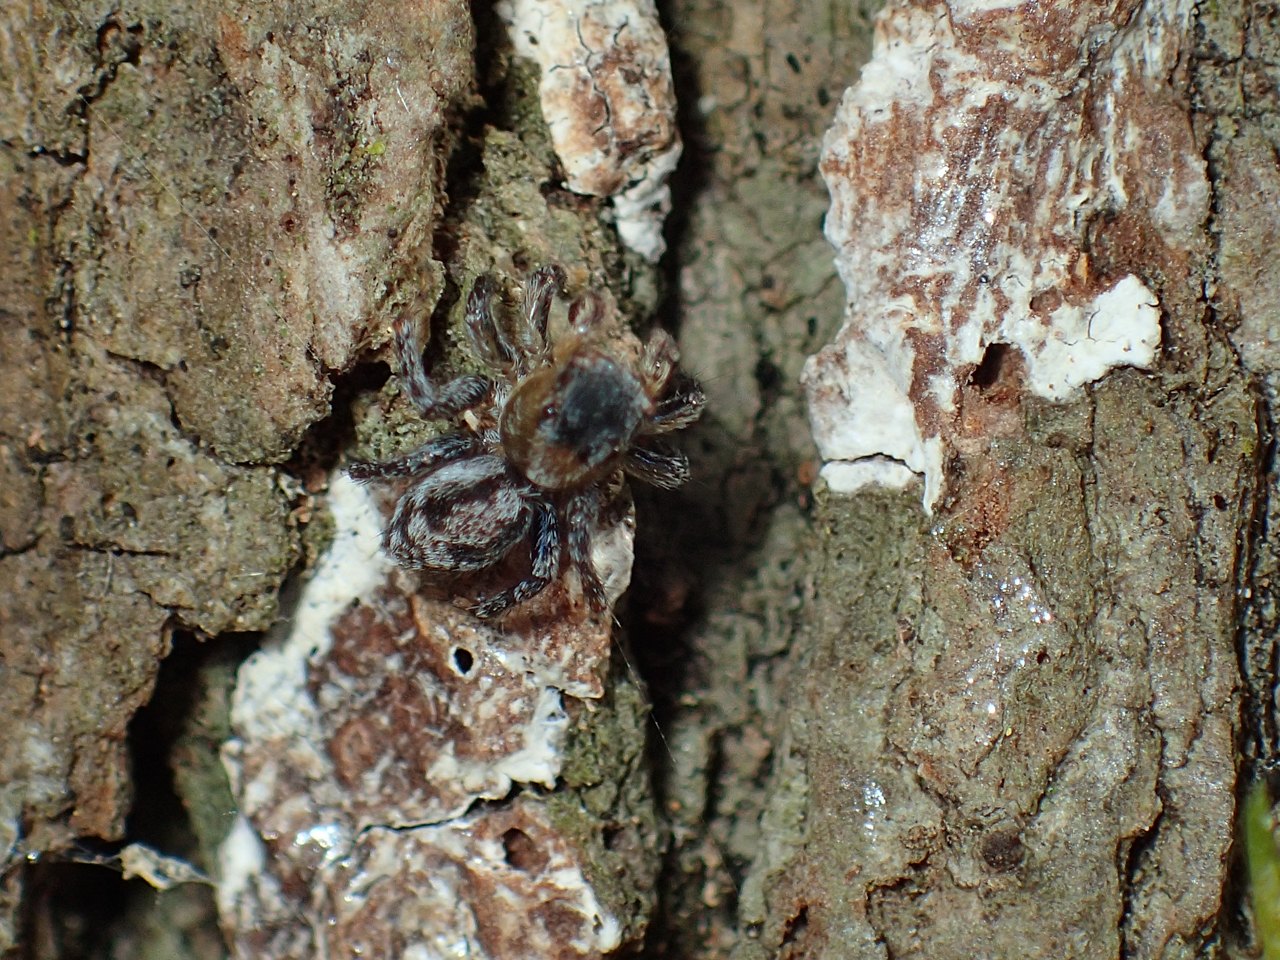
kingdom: Animalia
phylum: Arthropoda
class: Arachnida
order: Araneae
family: Salticidae
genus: Naphrys
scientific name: Naphrys pulex
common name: Flea jumping spider
